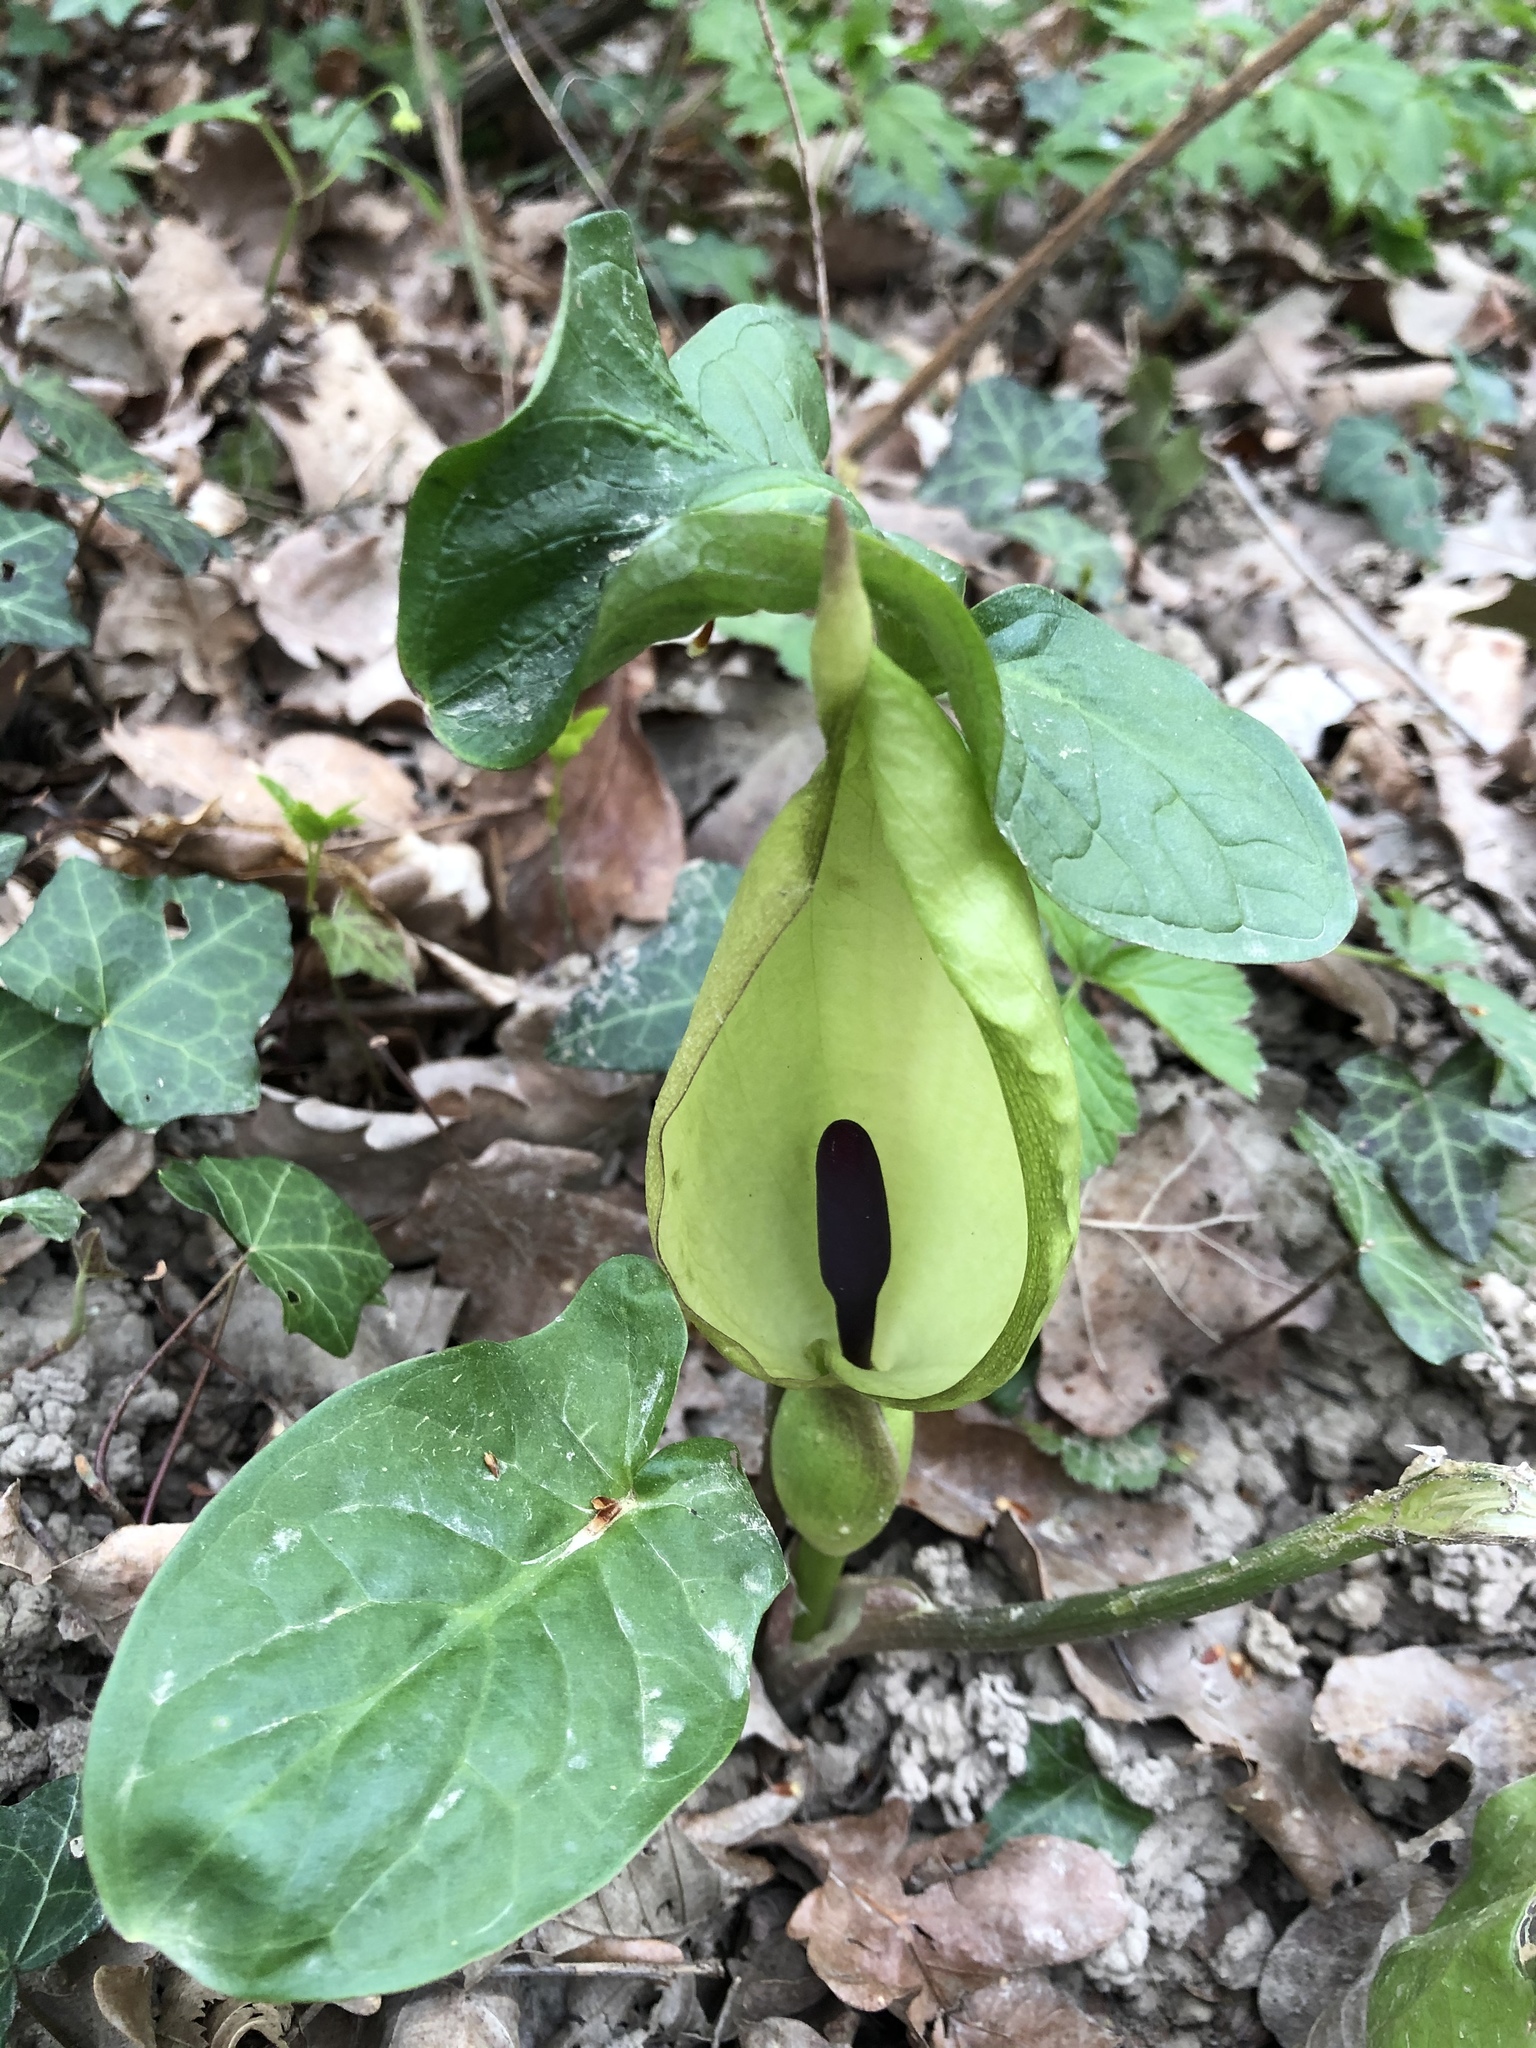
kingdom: Plantae
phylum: Tracheophyta
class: Liliopsida
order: Alismatales
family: Araceae
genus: Arum
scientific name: Arum maculatum
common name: Lords-and-ladies
